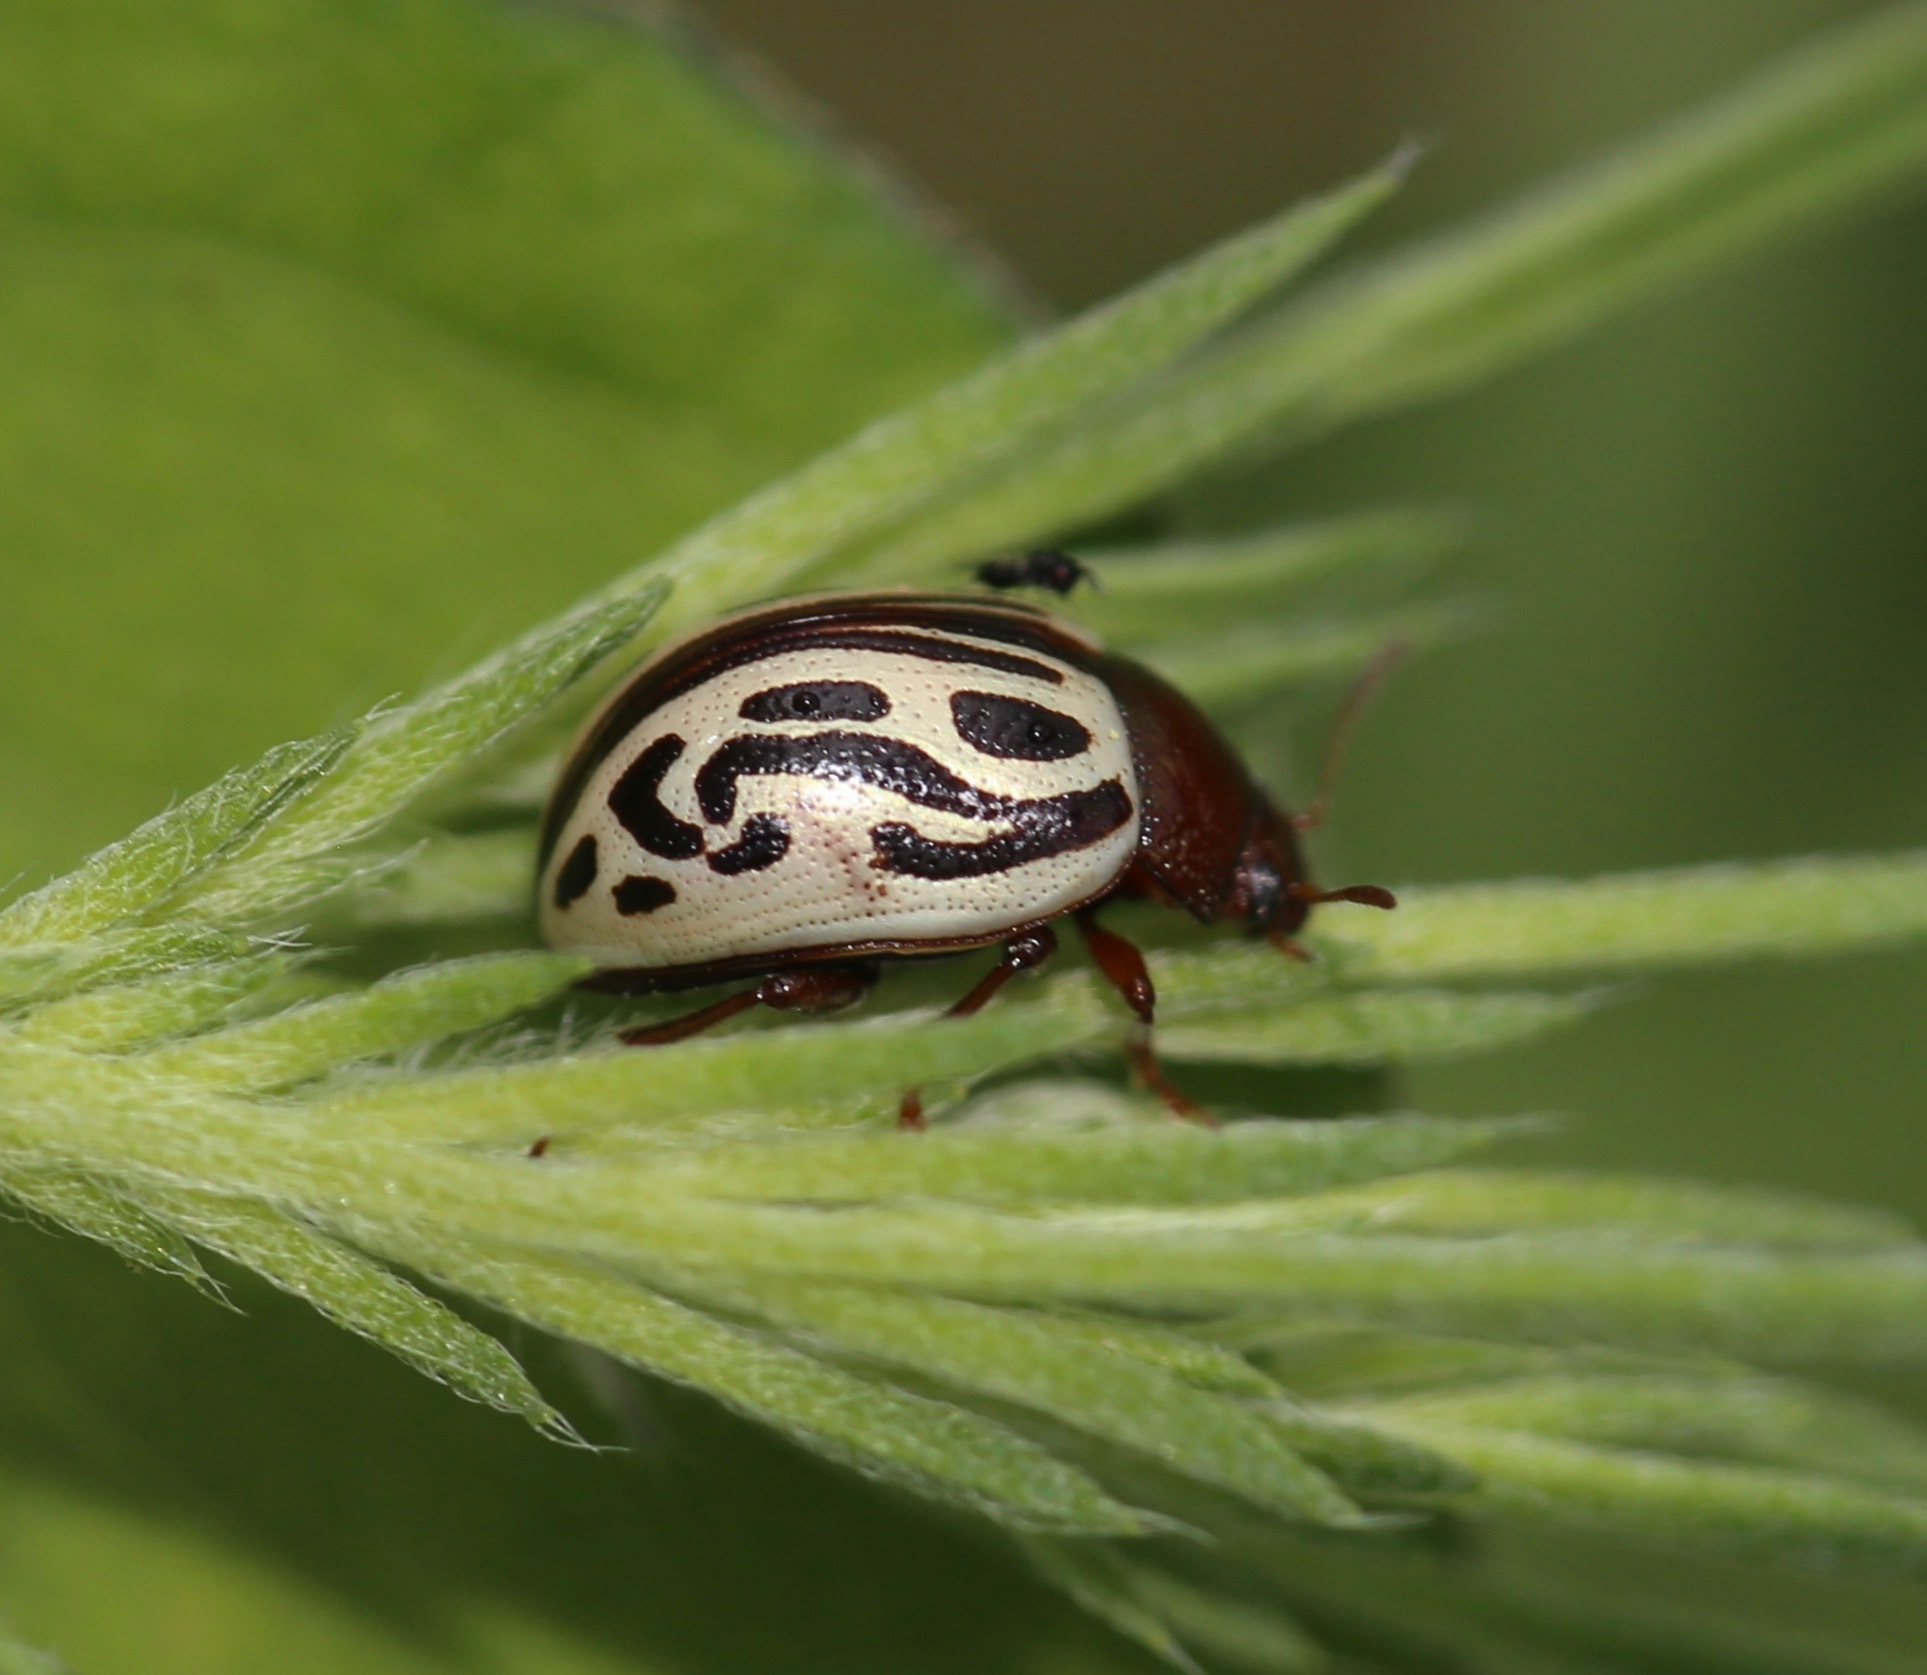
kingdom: Animalia
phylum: Arthropoda
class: Insecta
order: Coleoptera
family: Chrysomelidae
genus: Calligrapha
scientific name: Calligrapha
